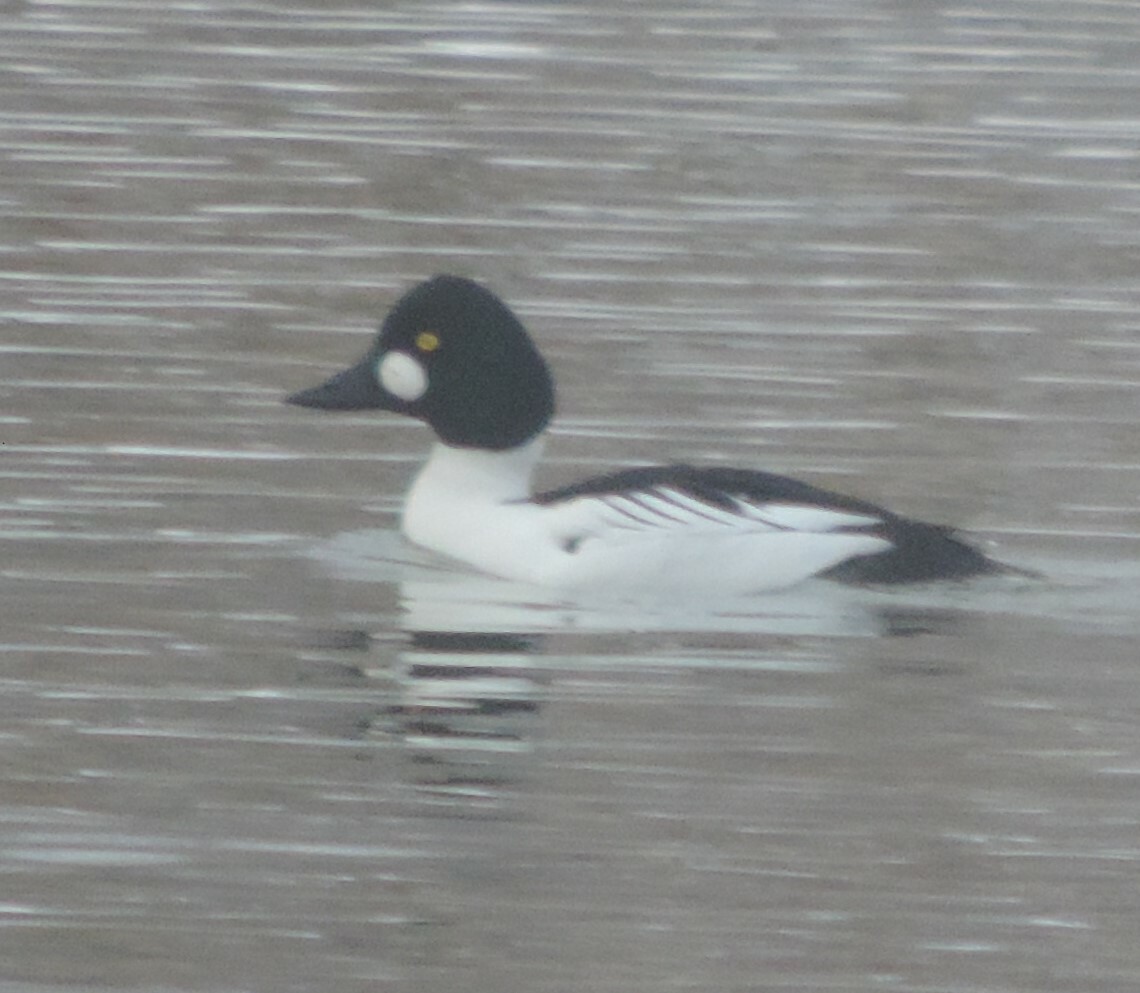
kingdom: Animalia
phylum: Chordata
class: Aves
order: Anseriformes
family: Anatidae
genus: Bucephala
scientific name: Bucephala clangula
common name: Common goldeneye
